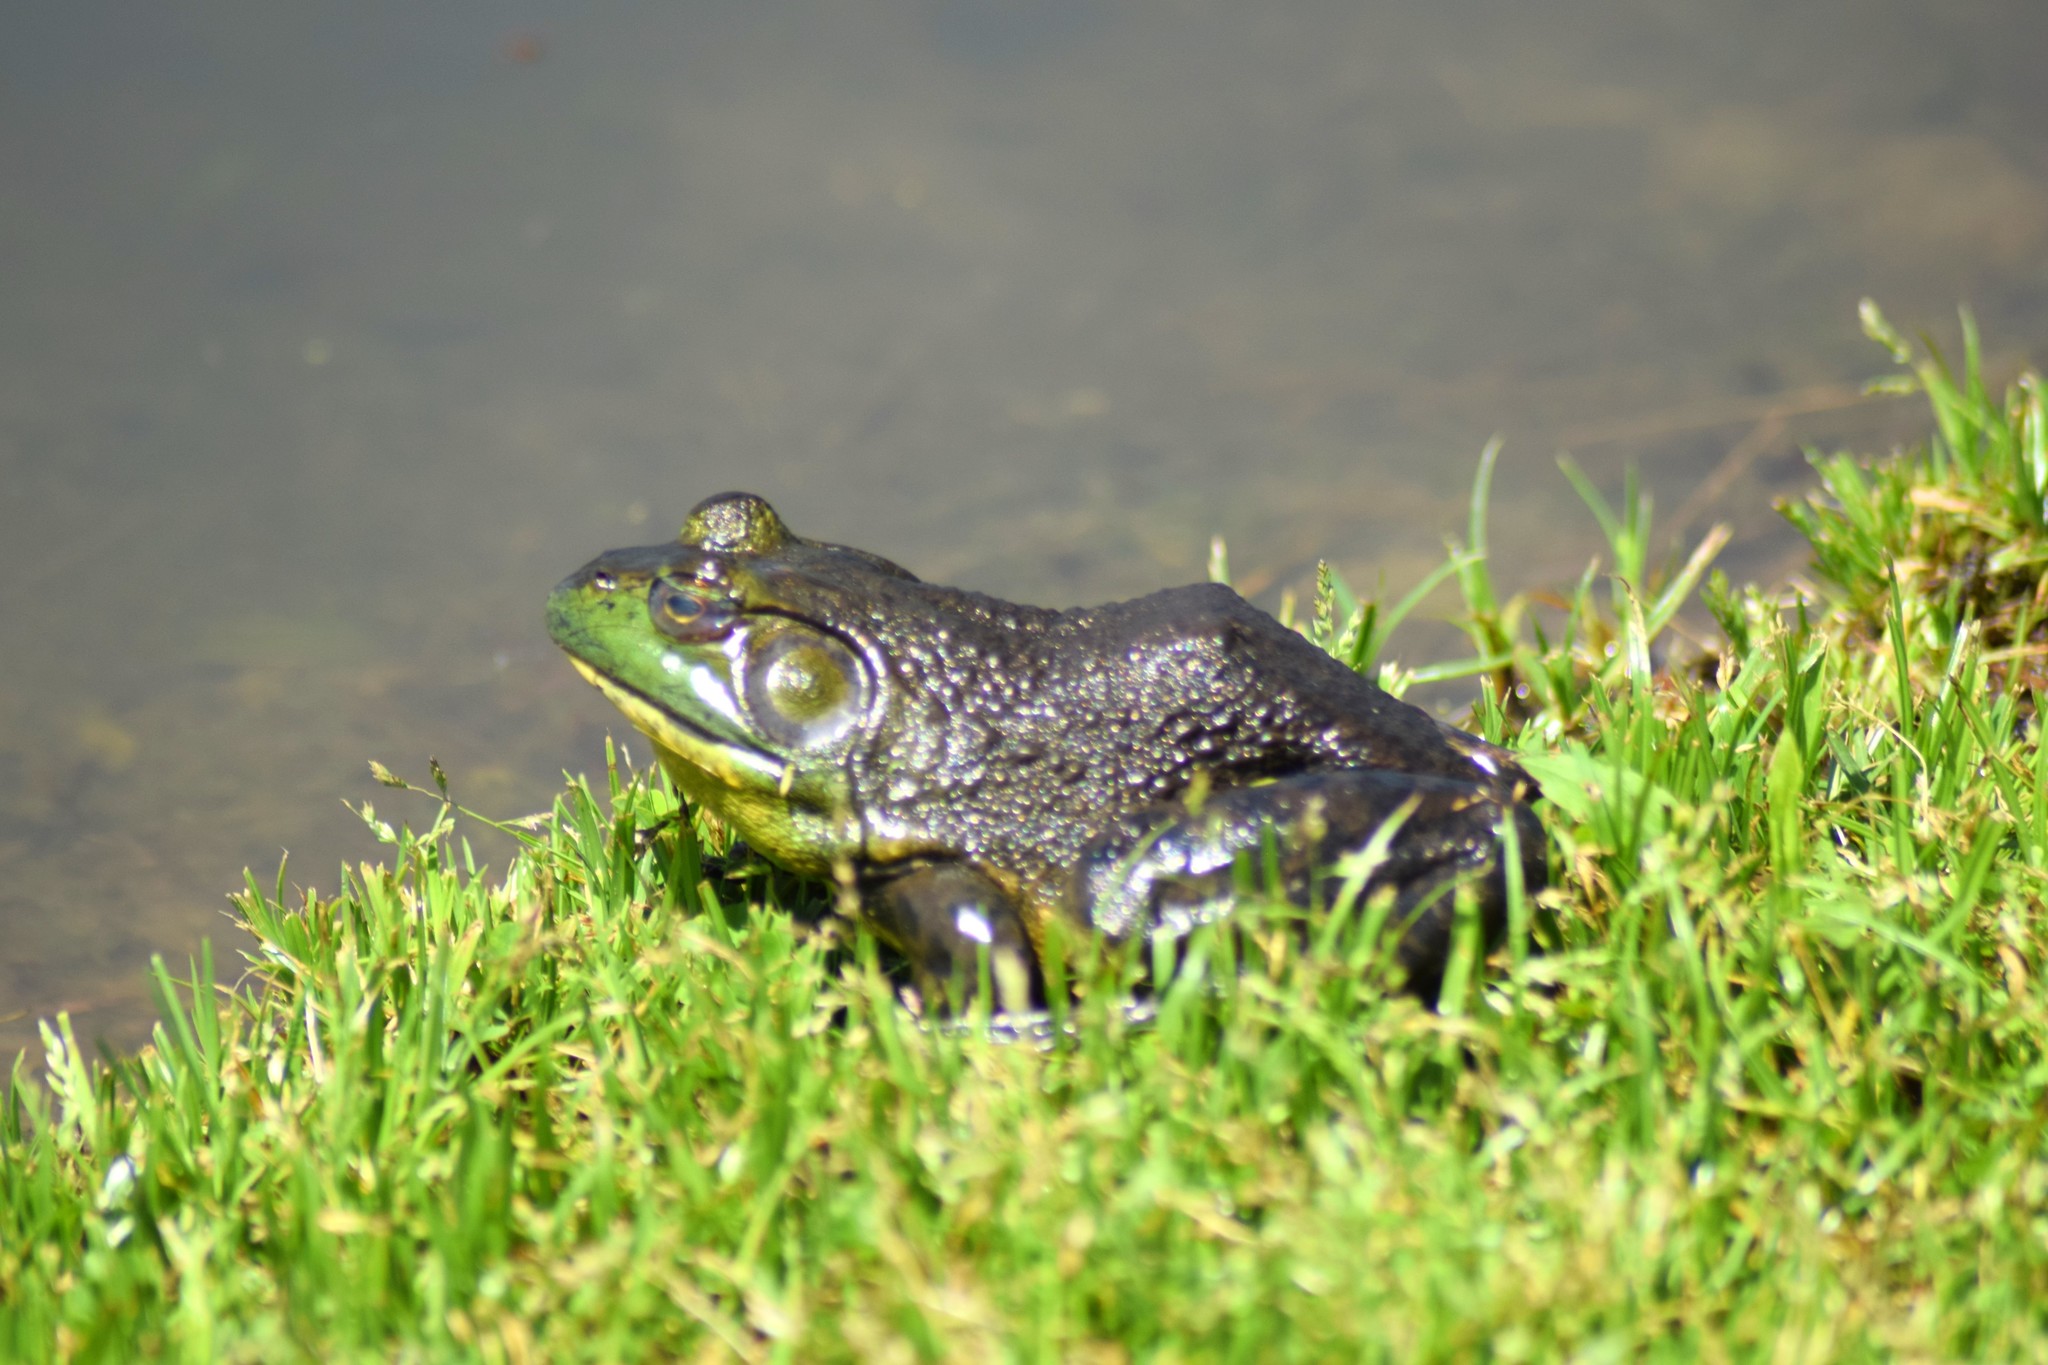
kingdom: Animalia
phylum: Chordata
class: Amphibia
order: Anura
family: Ranidae
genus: Lithobates
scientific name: Lithobates catesbeianus
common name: American bullfrog
